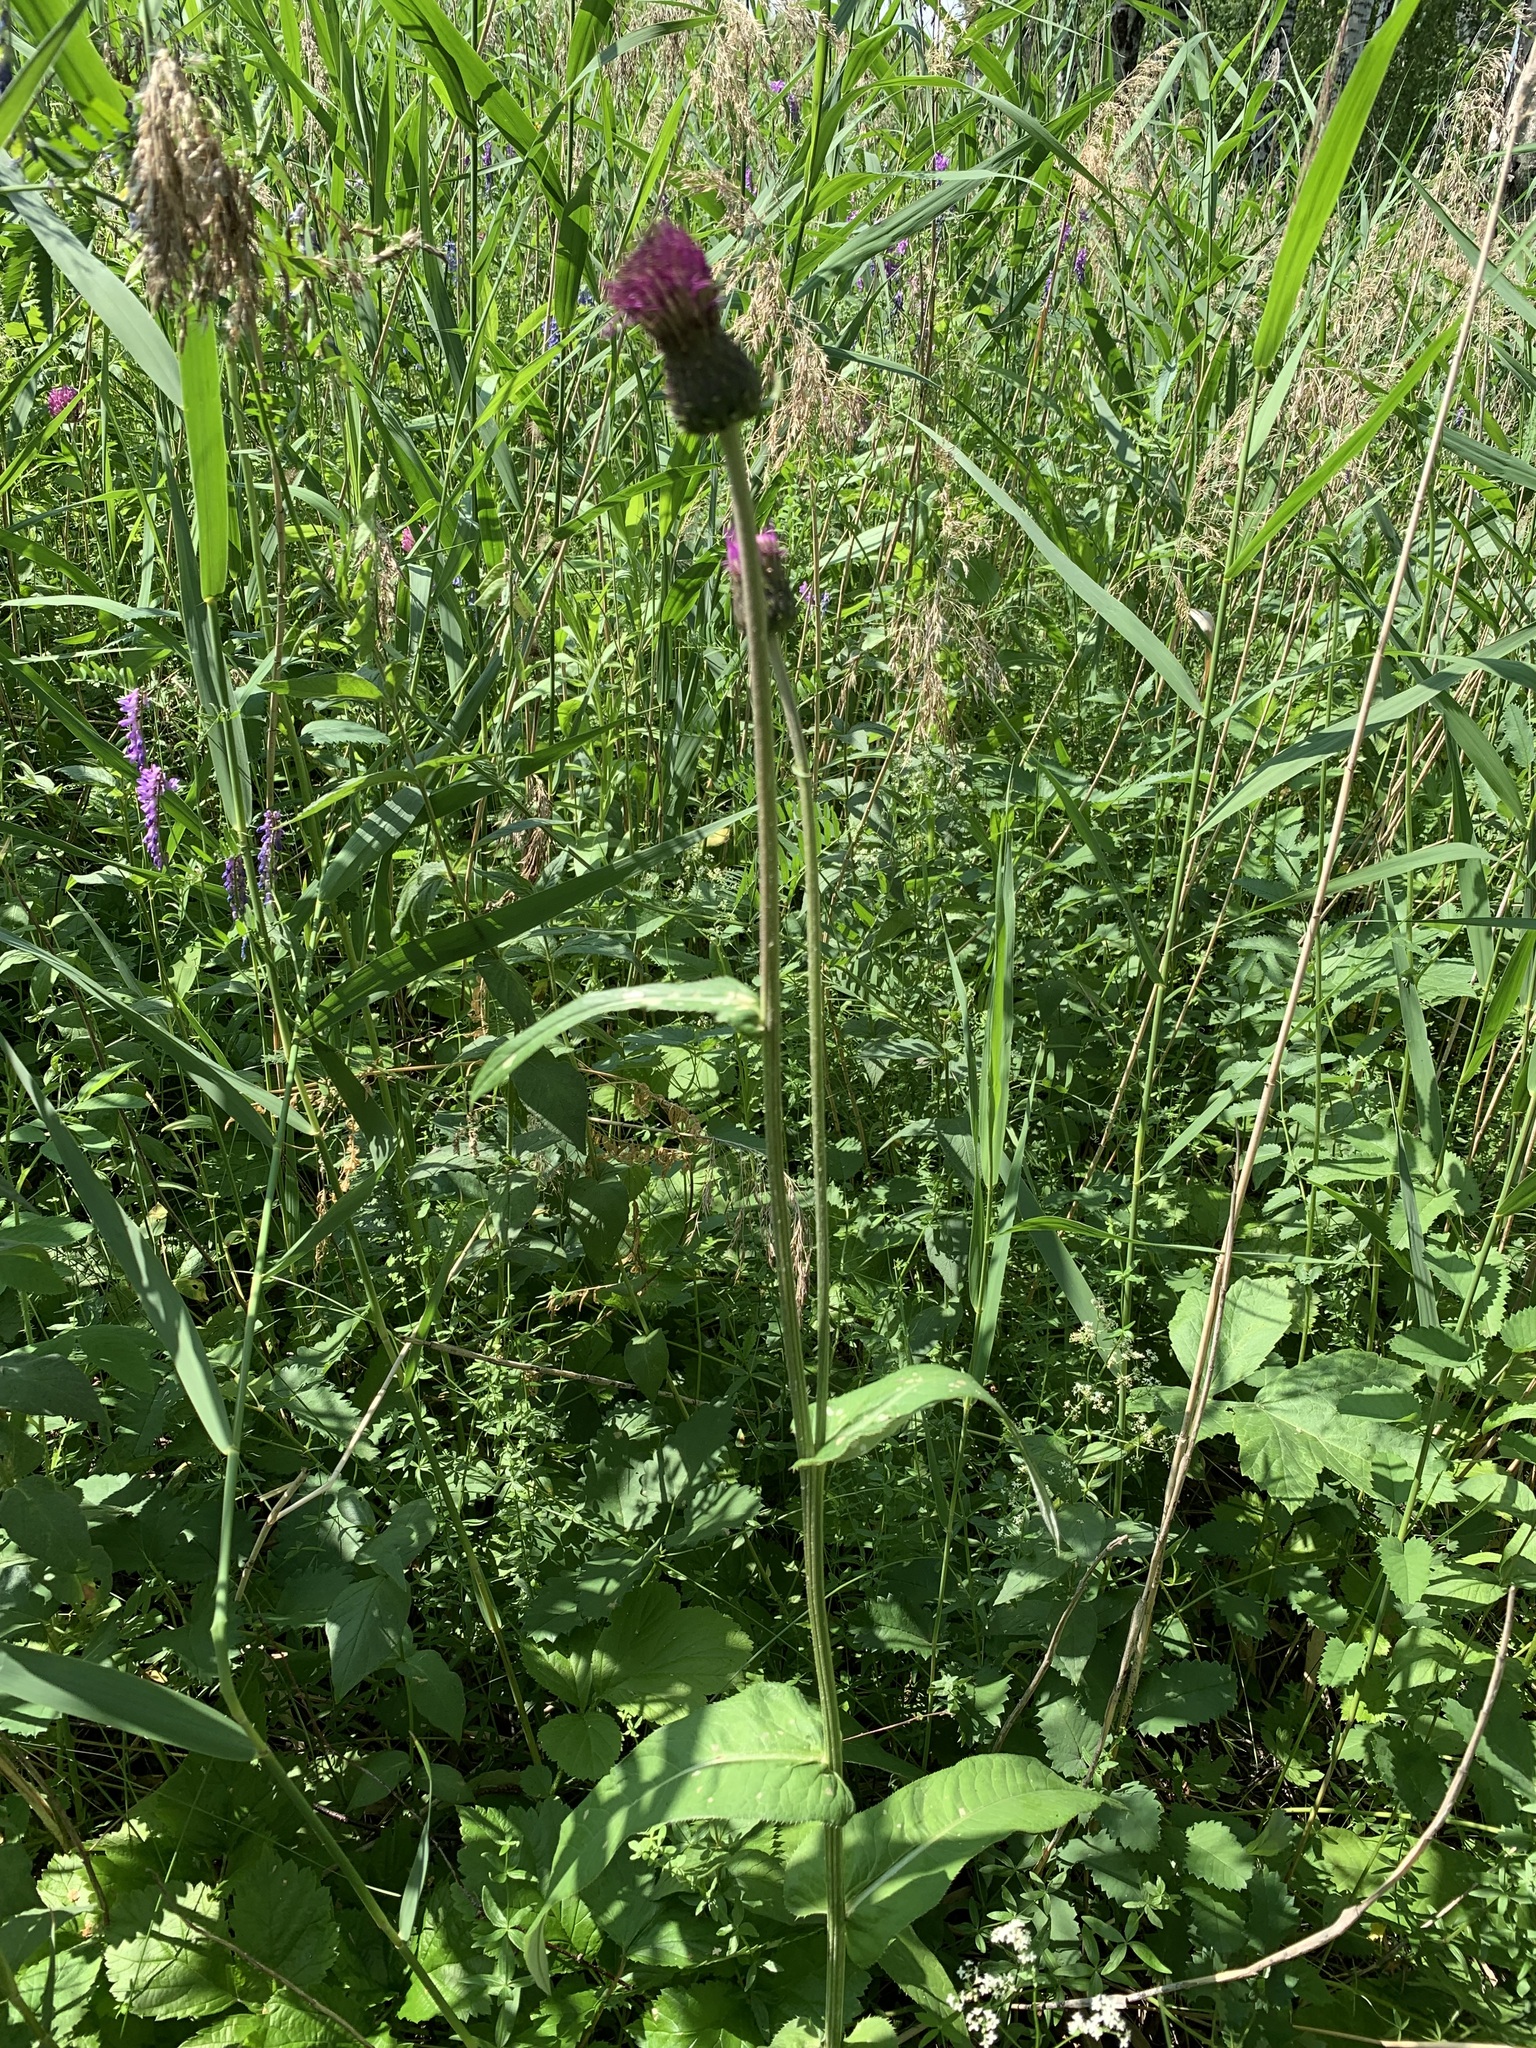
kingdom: Plantae
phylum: Tracheophyta
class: Magnoliopsida
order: Asterales
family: Asteraceae
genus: Cirsium
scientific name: Cirsium heterophyllum
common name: Melancholy thistle
